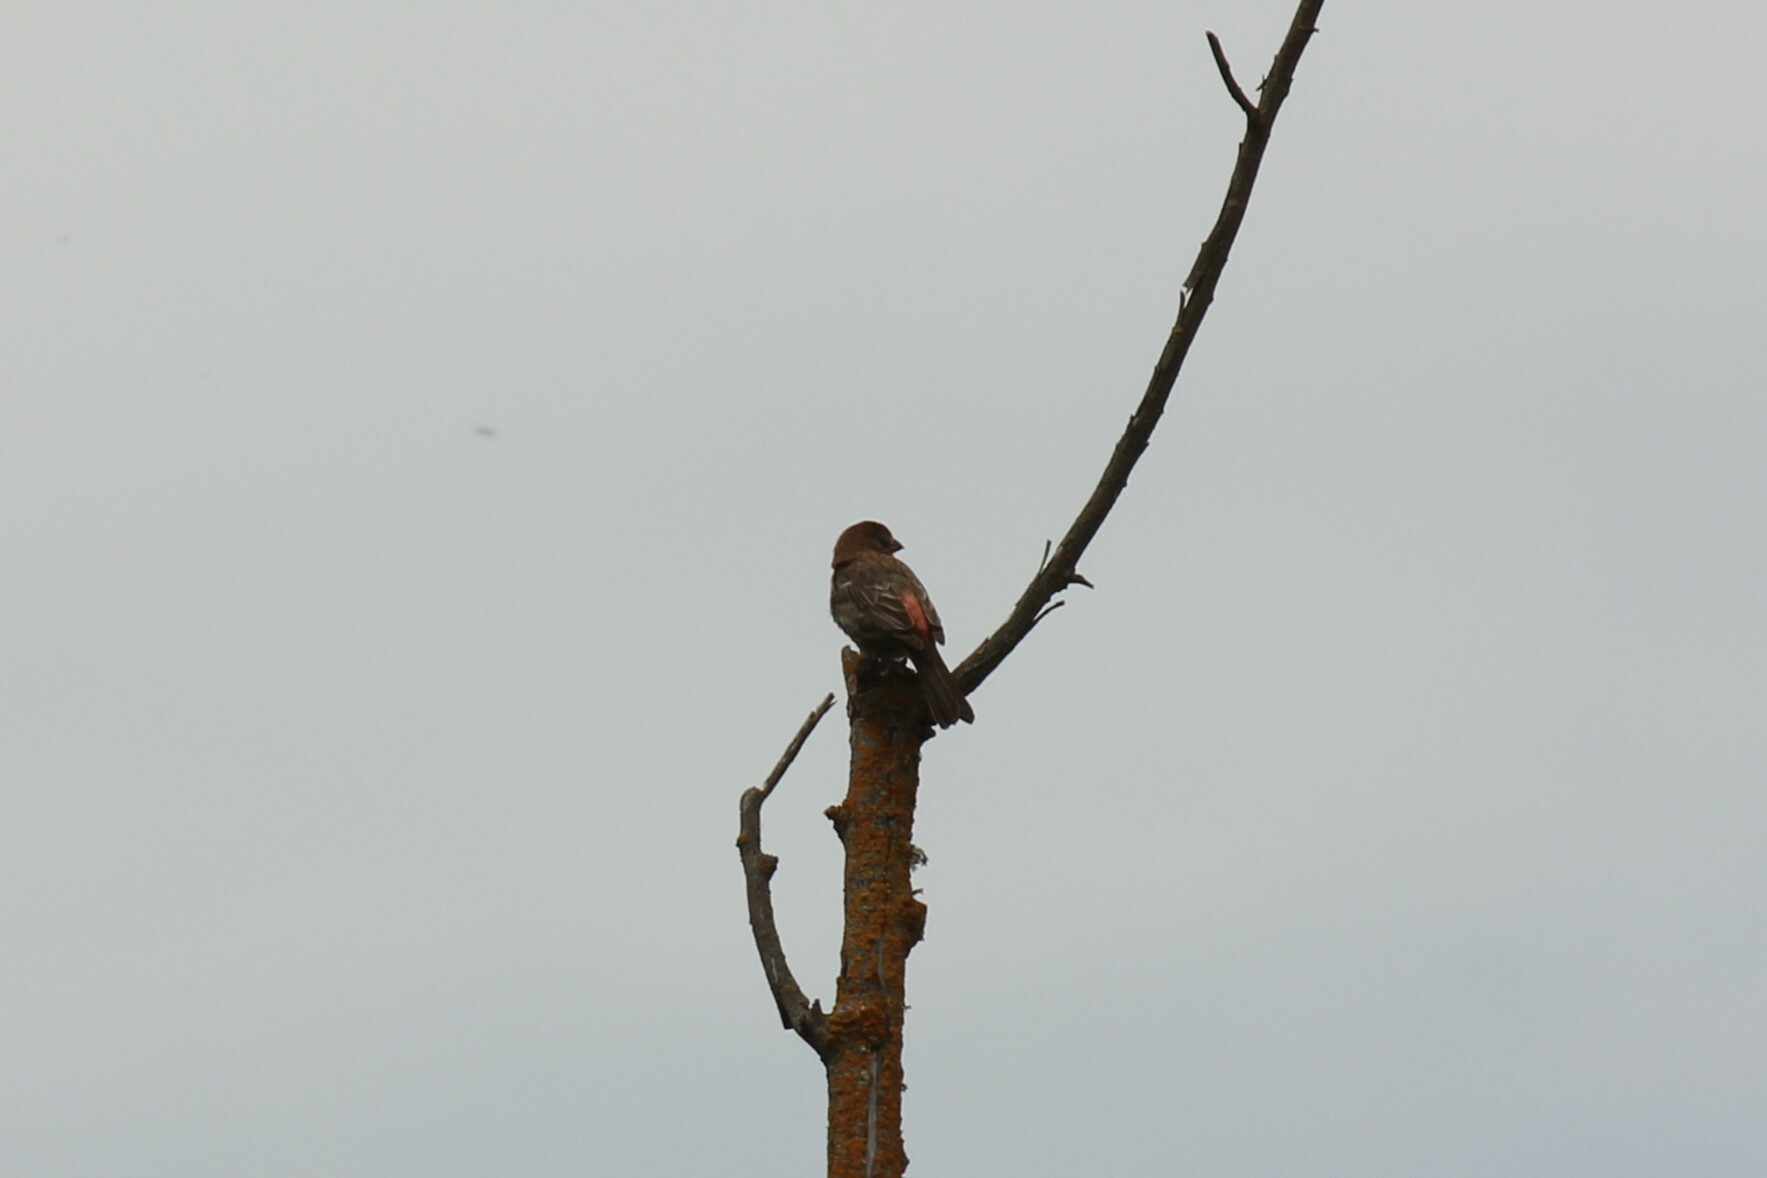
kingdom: Animalia
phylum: Chordata
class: Aves
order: Passeriformes
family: Fringillidae
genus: Haemorhous
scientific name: Haemorhous mexicanus
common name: House finch
